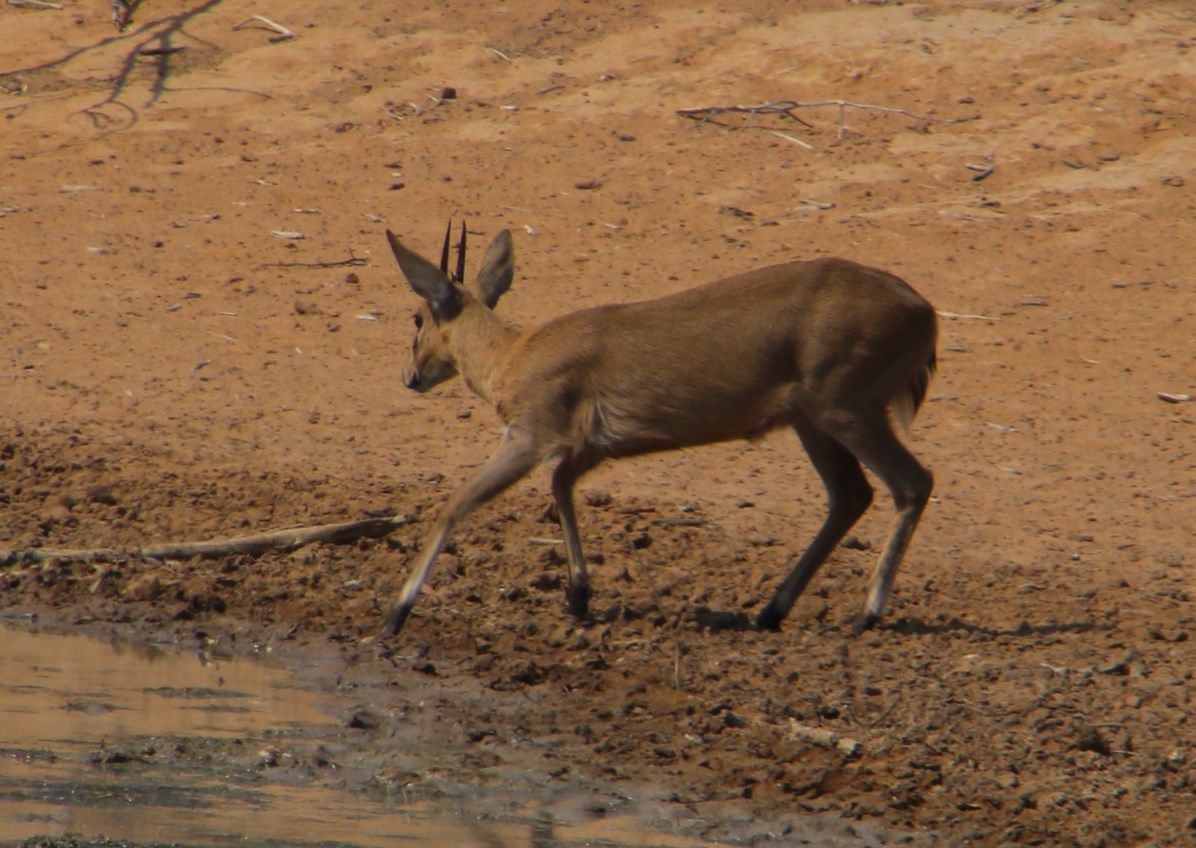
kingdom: Animalia
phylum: Chordata
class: Mammalia
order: Artiodactyla
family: Bovidae
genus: Sylvicapra
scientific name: Sylvicapra grimmia
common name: Bush duiker
